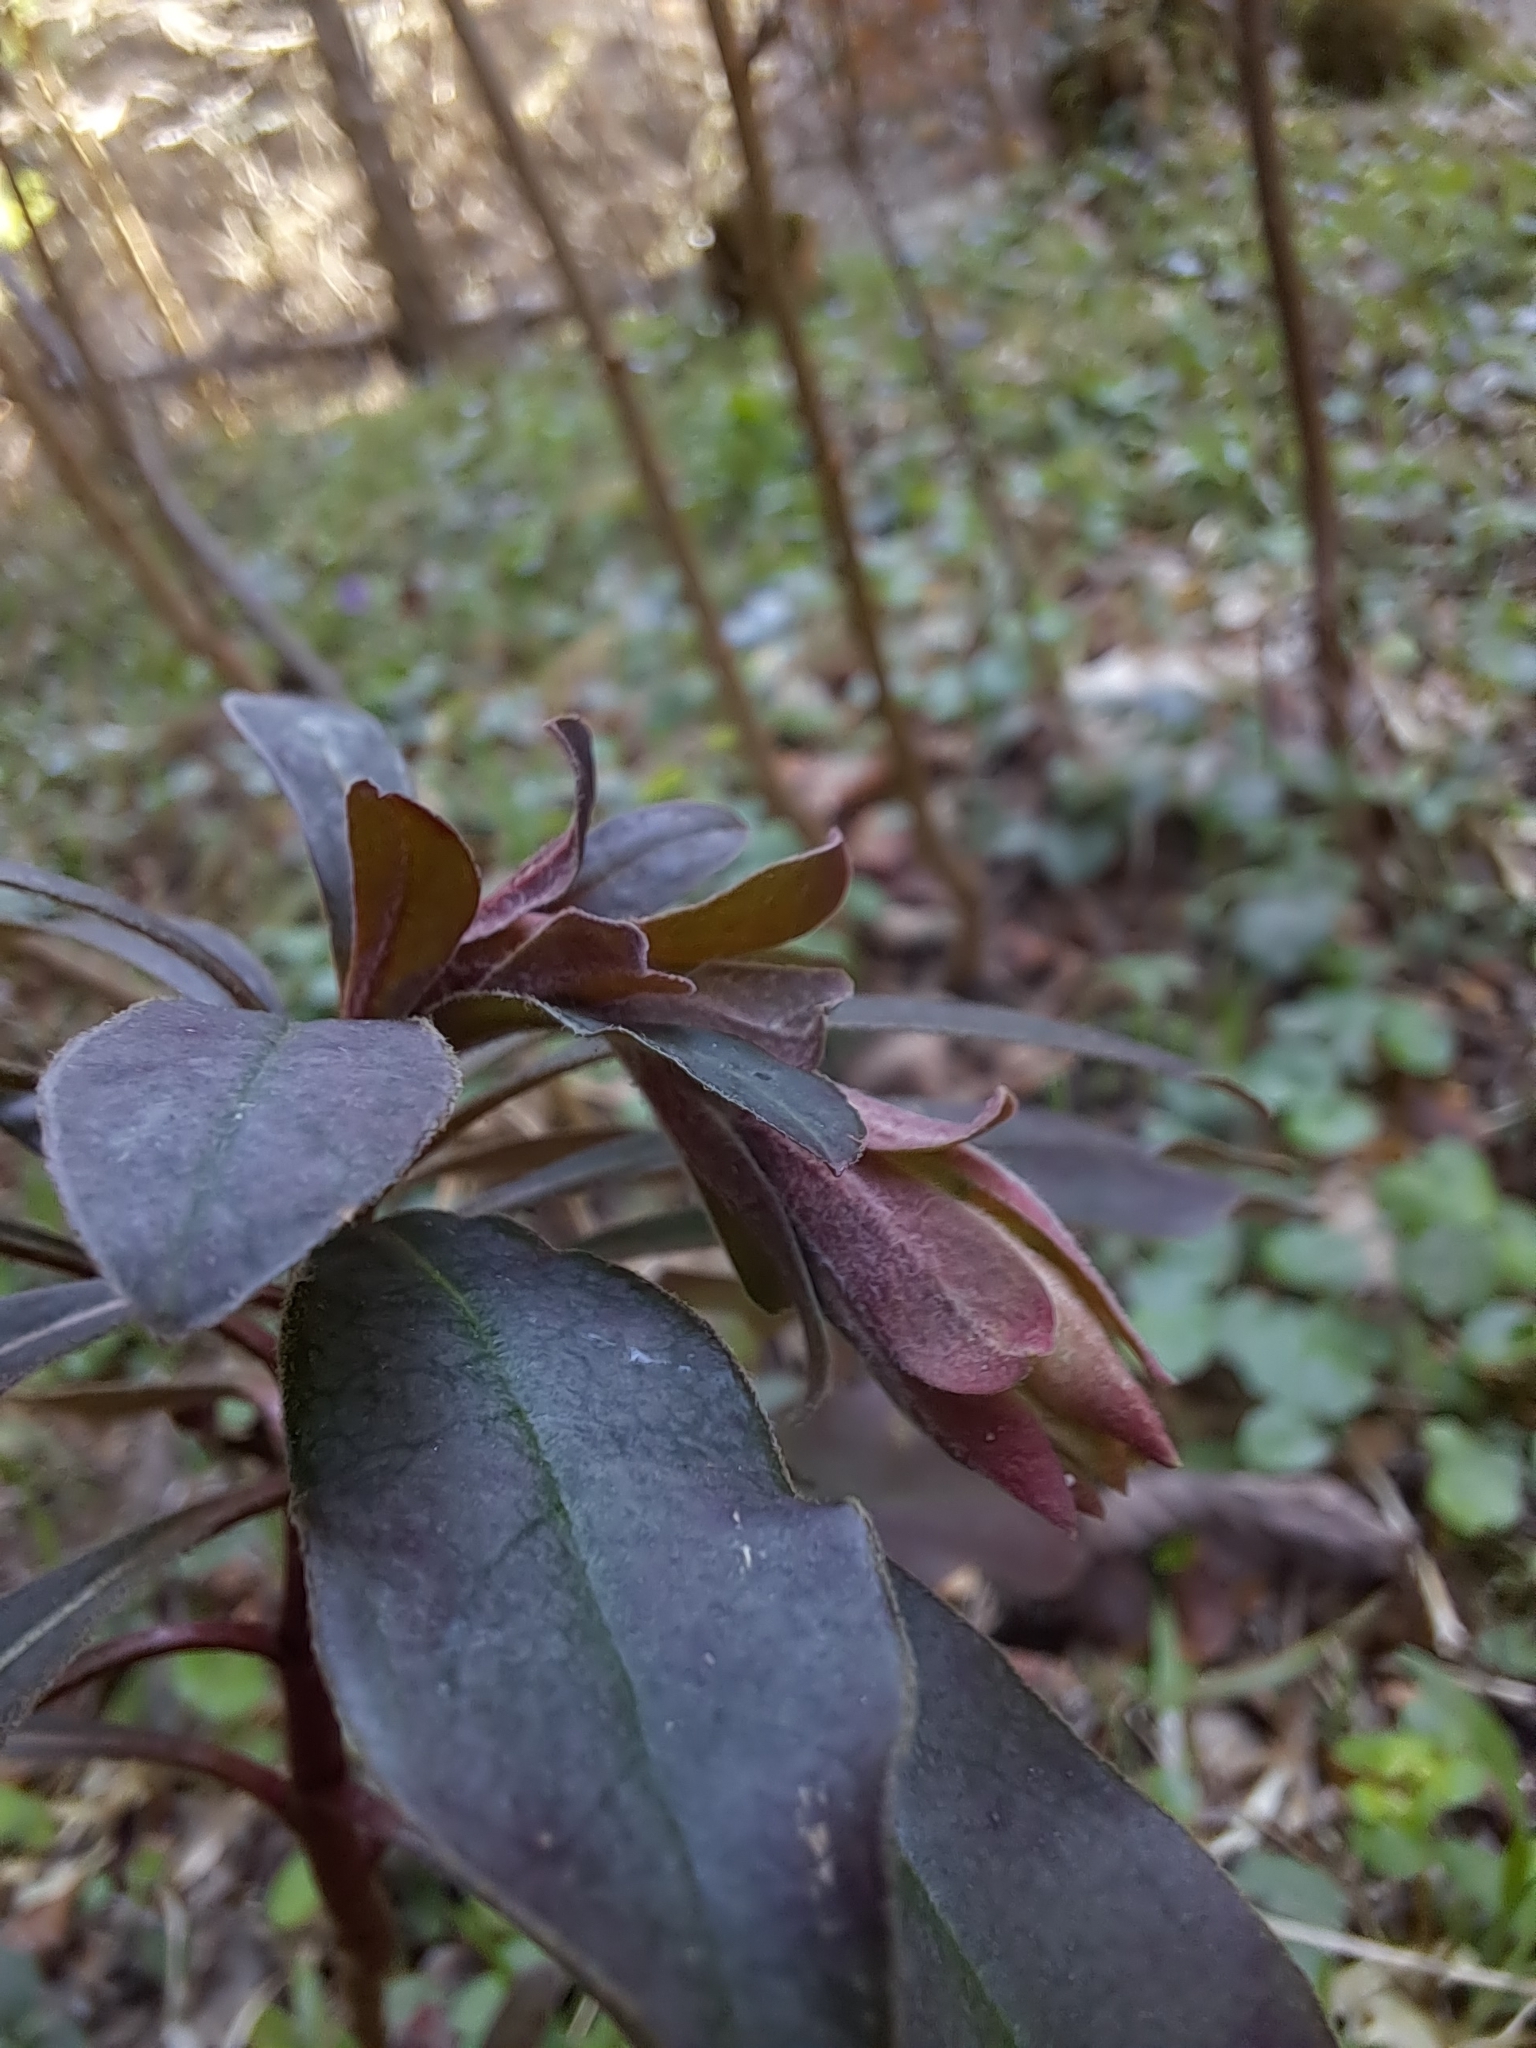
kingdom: Plantae
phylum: Tracheophyta
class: Magnoliopsida
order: Malpighiales
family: Euphorbiaceae
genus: Euphorbia
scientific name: Euphorbia amygdaloides
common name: Wood spurge
